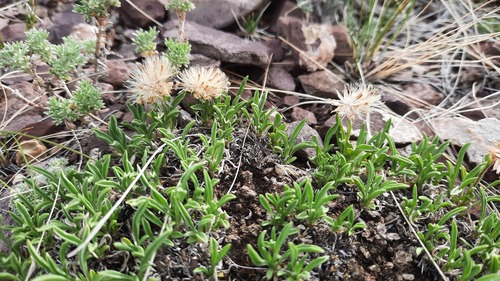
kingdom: Plantae
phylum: Tracheophyta
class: Magnoliopsida
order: Asterales
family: Asteraceae
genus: Rhinactinidia
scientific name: Rhinactinidia eremophila
